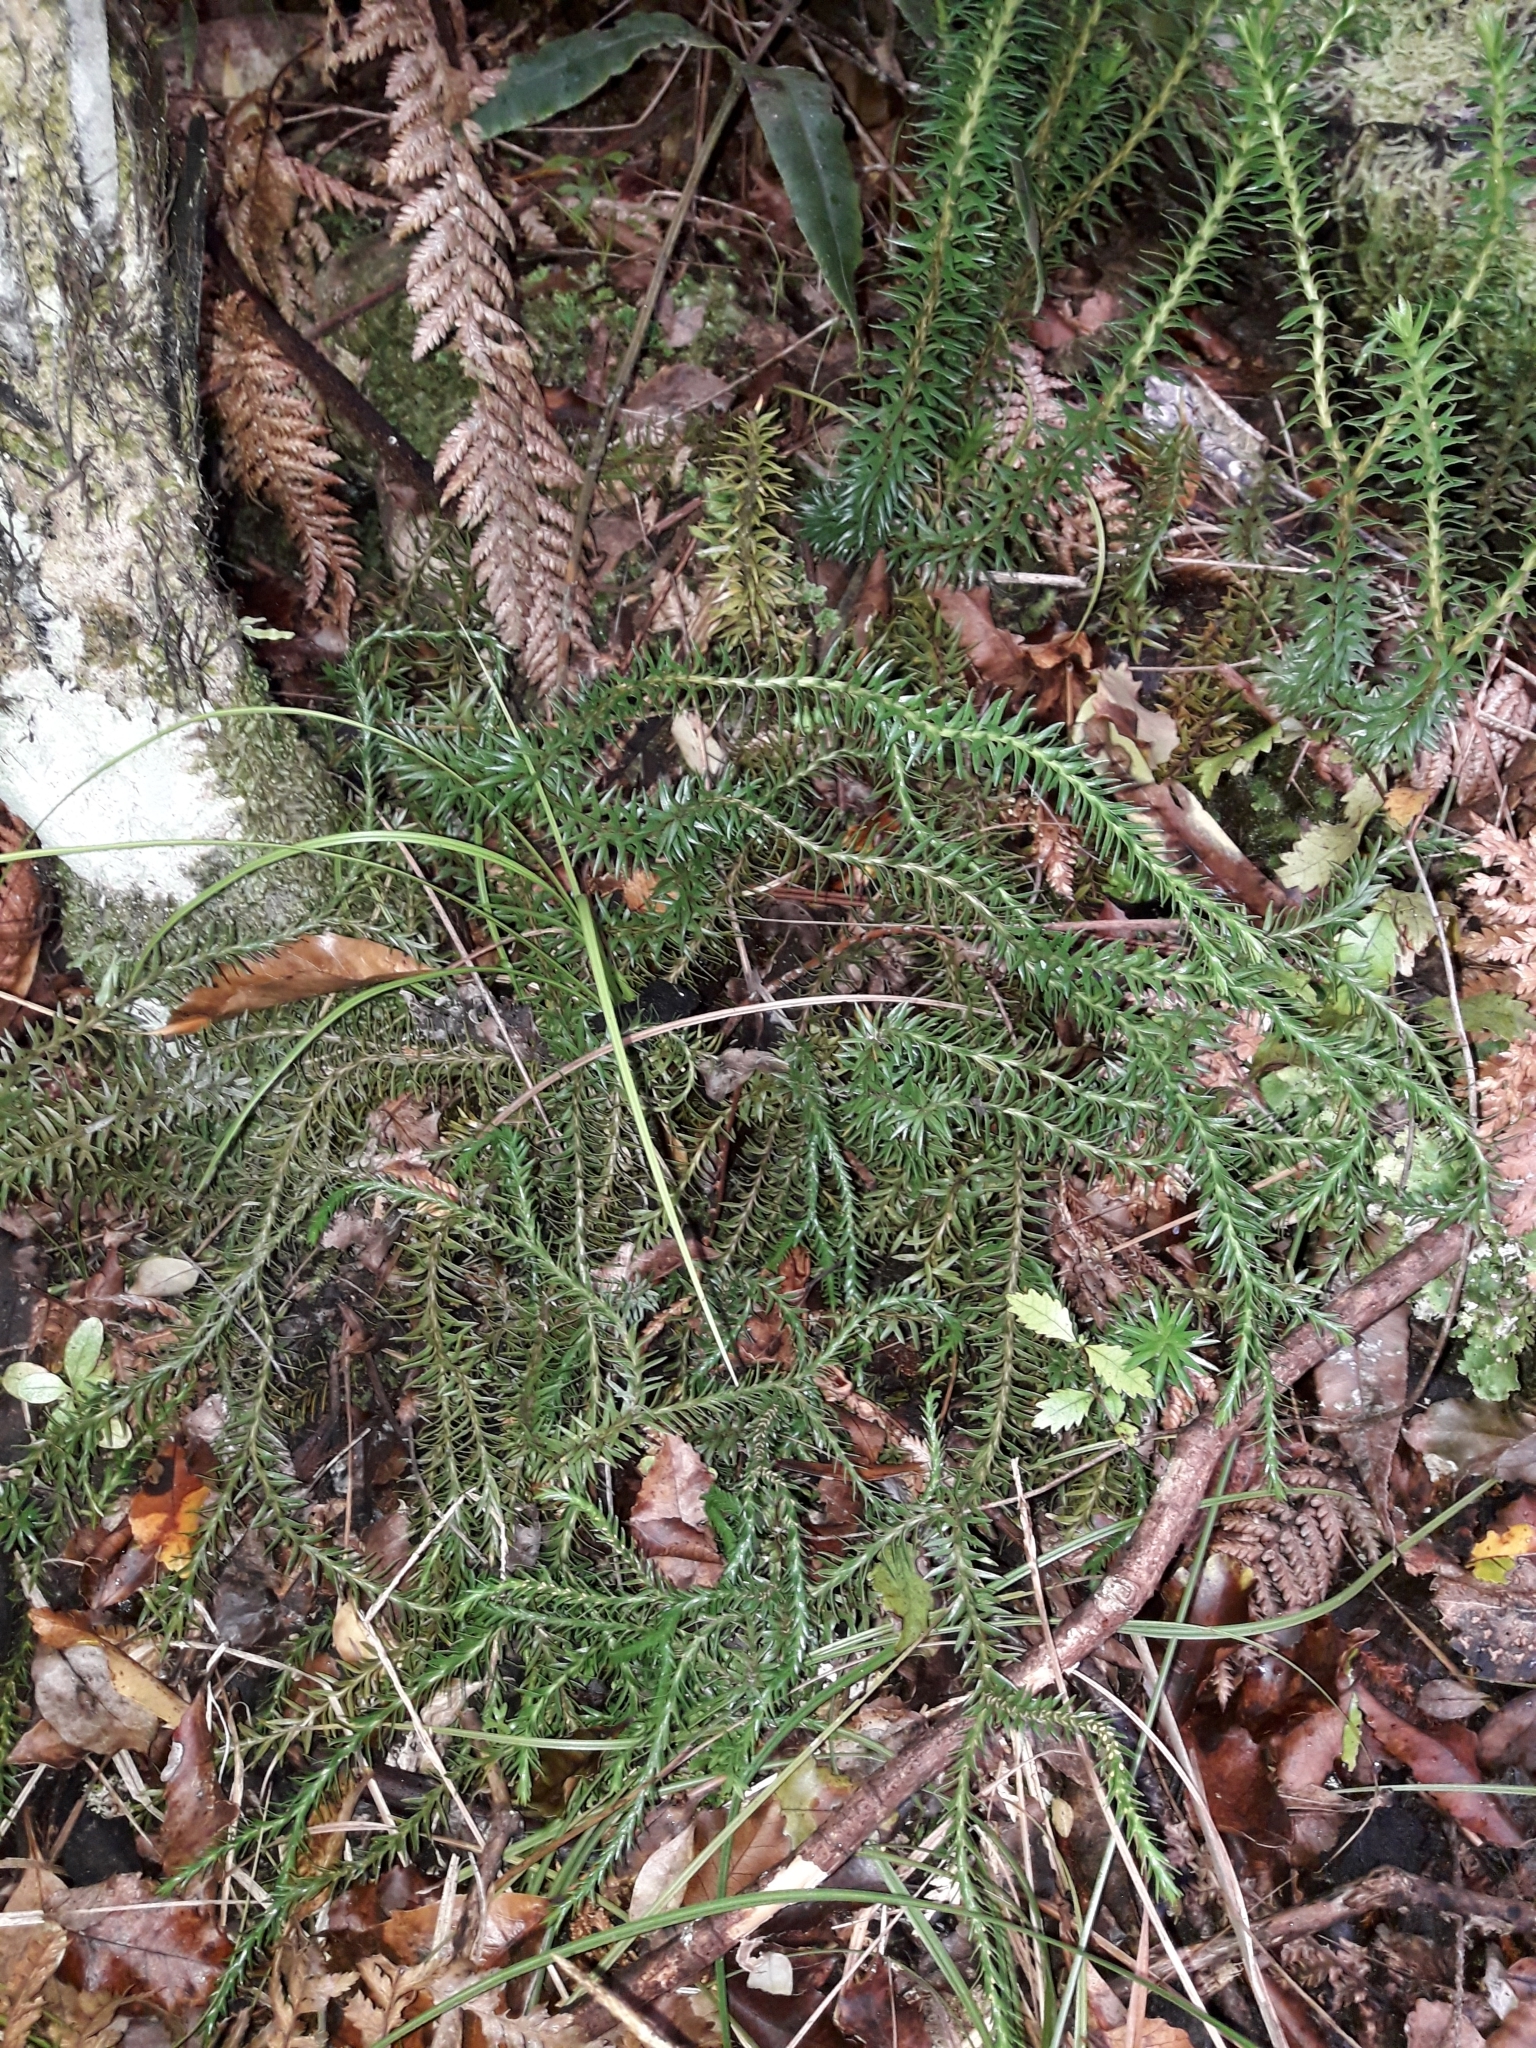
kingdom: Plantae
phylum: Tracheophyta
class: Lycopodiopsida
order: Lycopodiales
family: Lycopodiaceae
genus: Phlegmariurus
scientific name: Phlegmariurus varius
